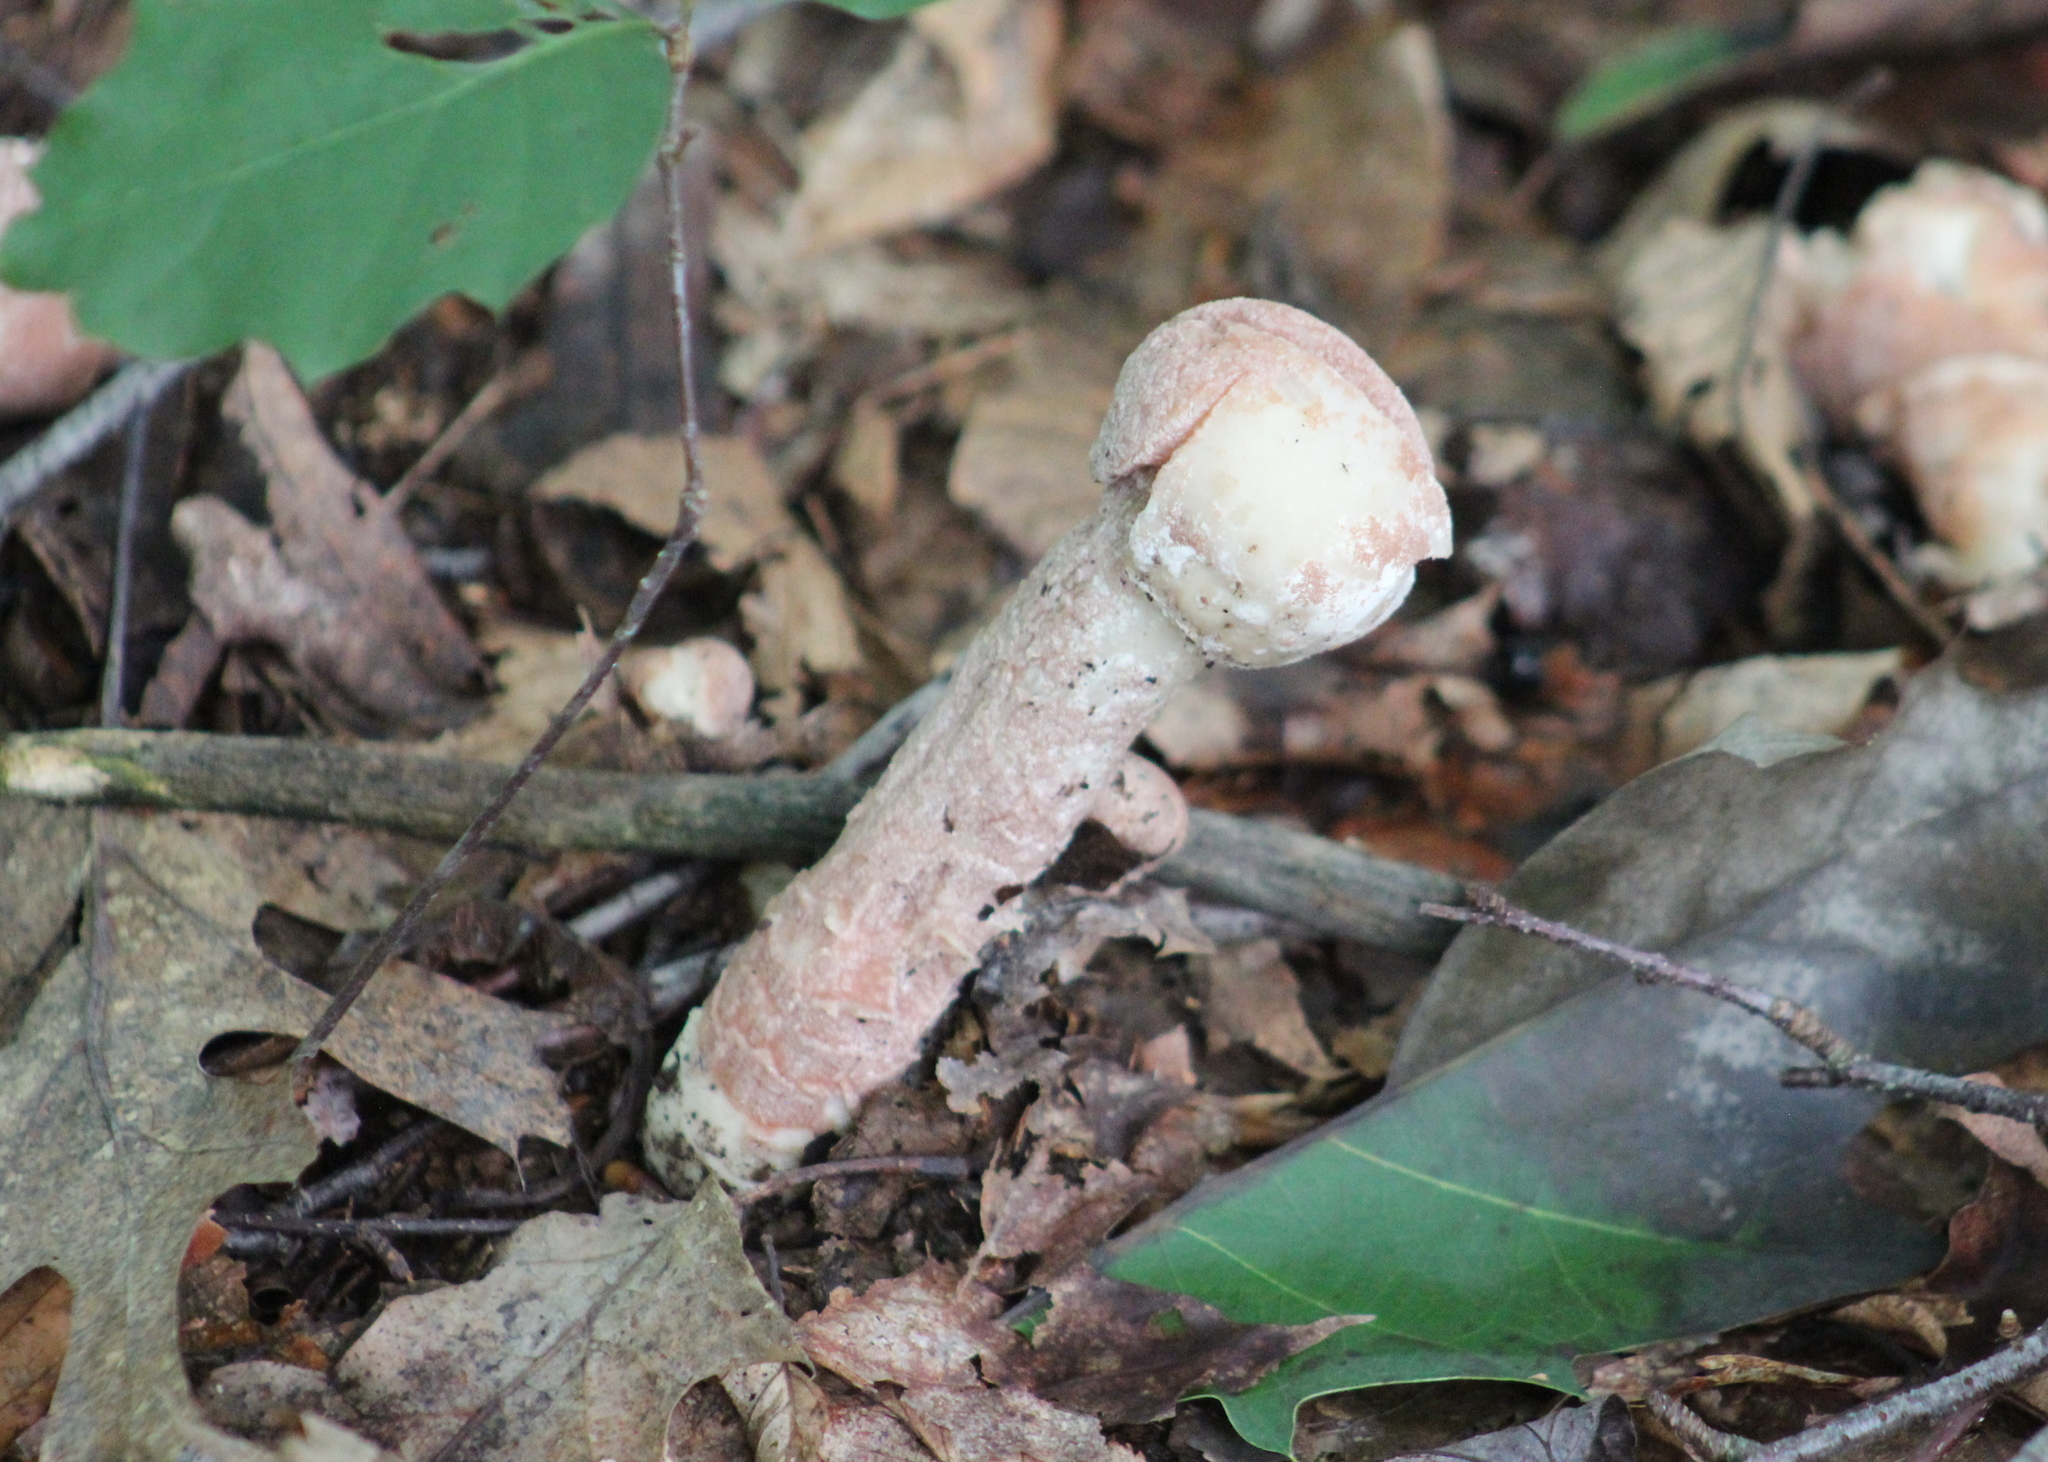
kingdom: Fungi
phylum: Ascomycota
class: Sordariomycetes
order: Hypocreales
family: Hypocreaceae
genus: Hypomyces
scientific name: Hypomyces hyalinus
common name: Amanita mold
